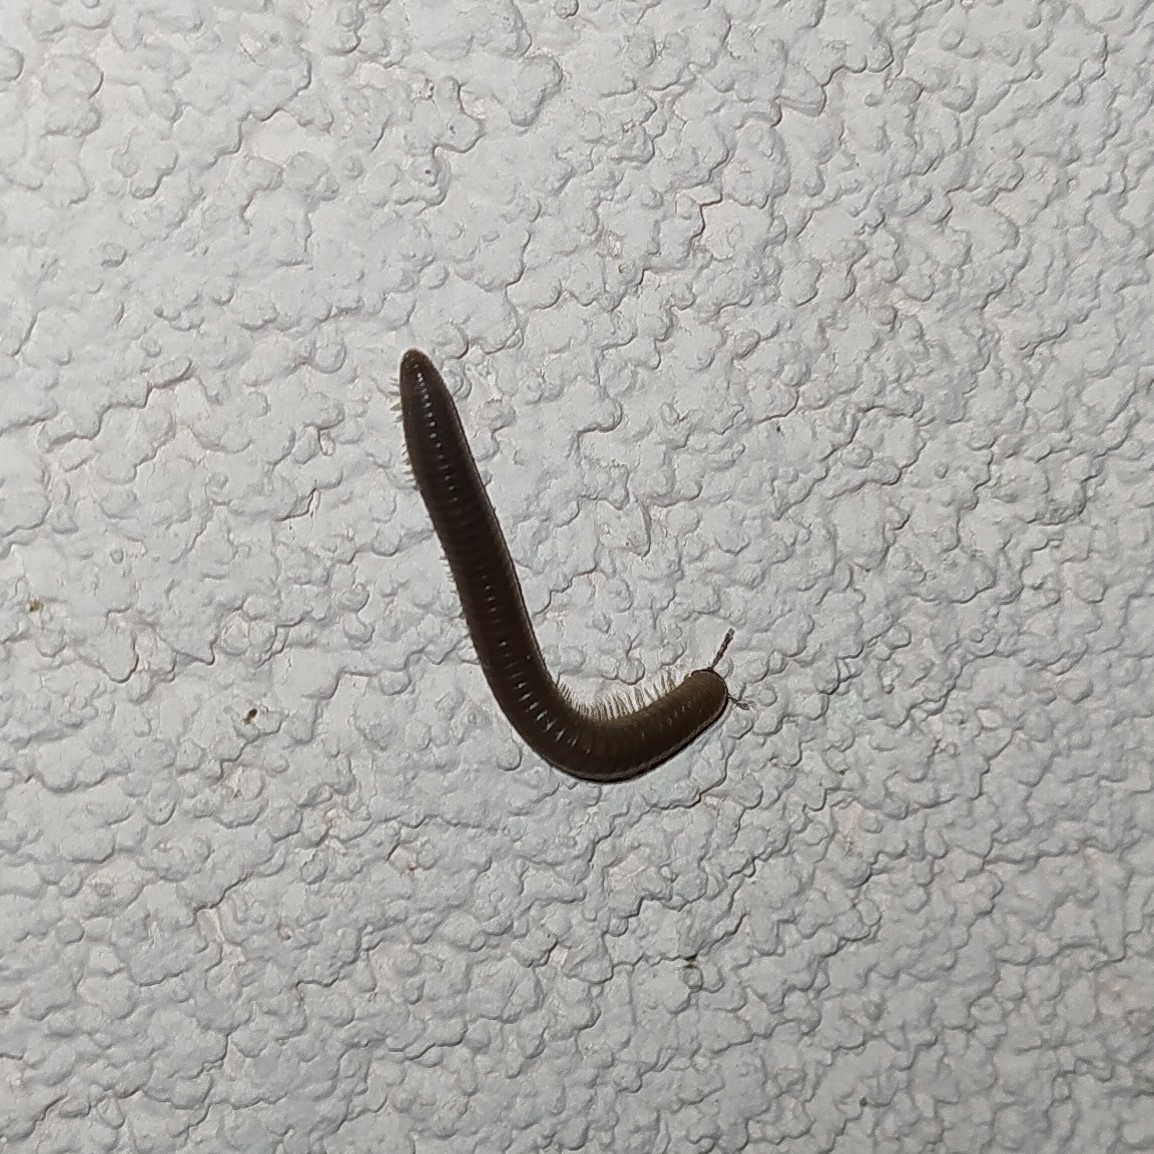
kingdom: Animalia
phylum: Arthropoda
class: Diplopoda
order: Julida
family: Julidae
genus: Pachyiulus
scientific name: Pachyiulus flavipes
